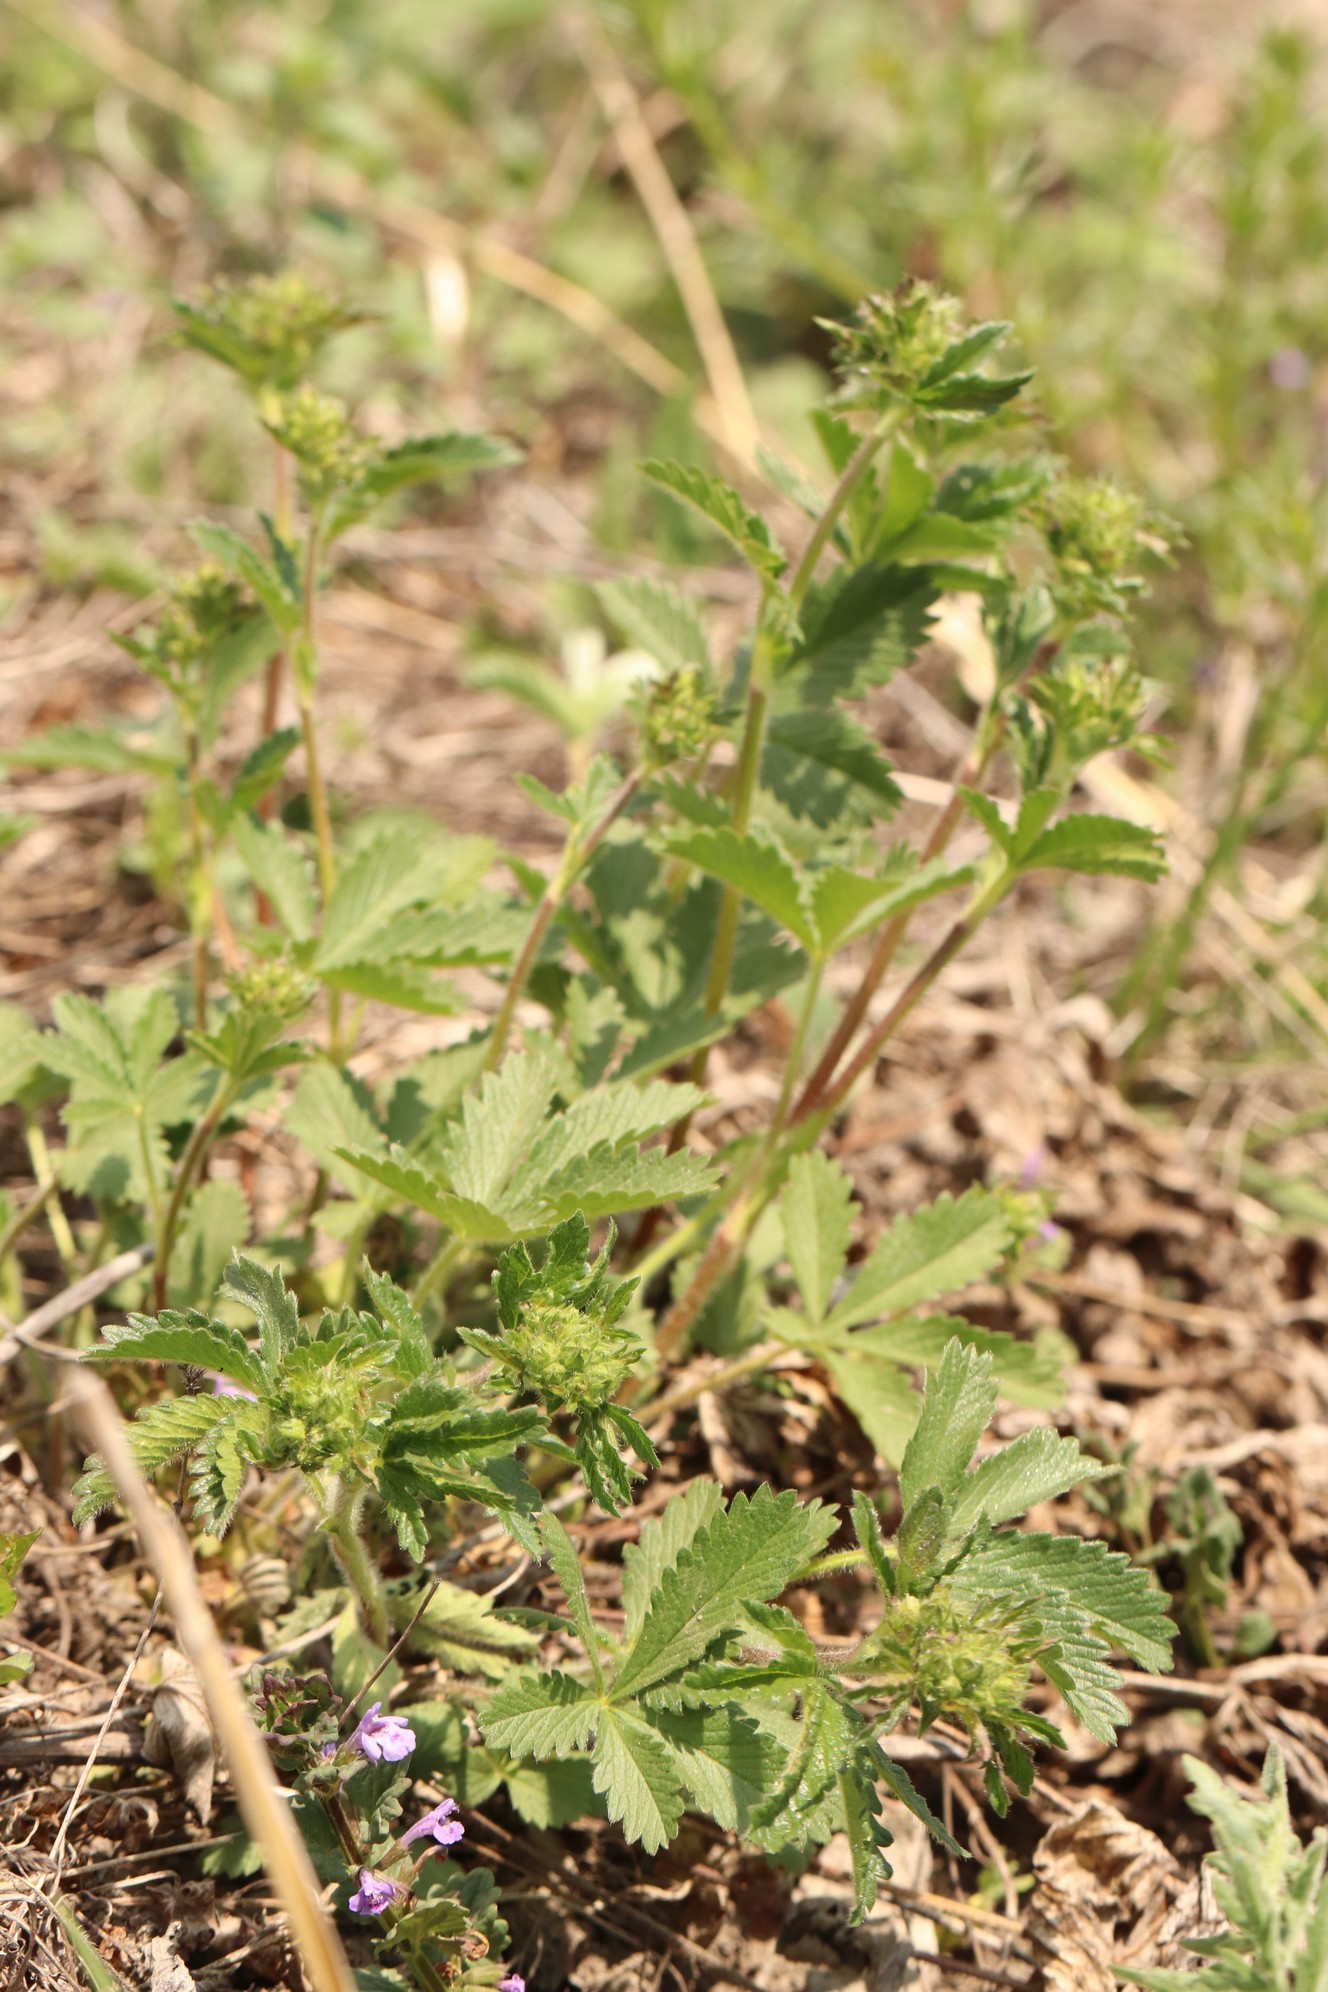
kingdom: Plantae
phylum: Tracheophyta
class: Magnoliopsida
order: Rosales
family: Rosaceae
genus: Potentilla
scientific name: Potentilla chrysantha
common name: Thuringian cinquefoil
